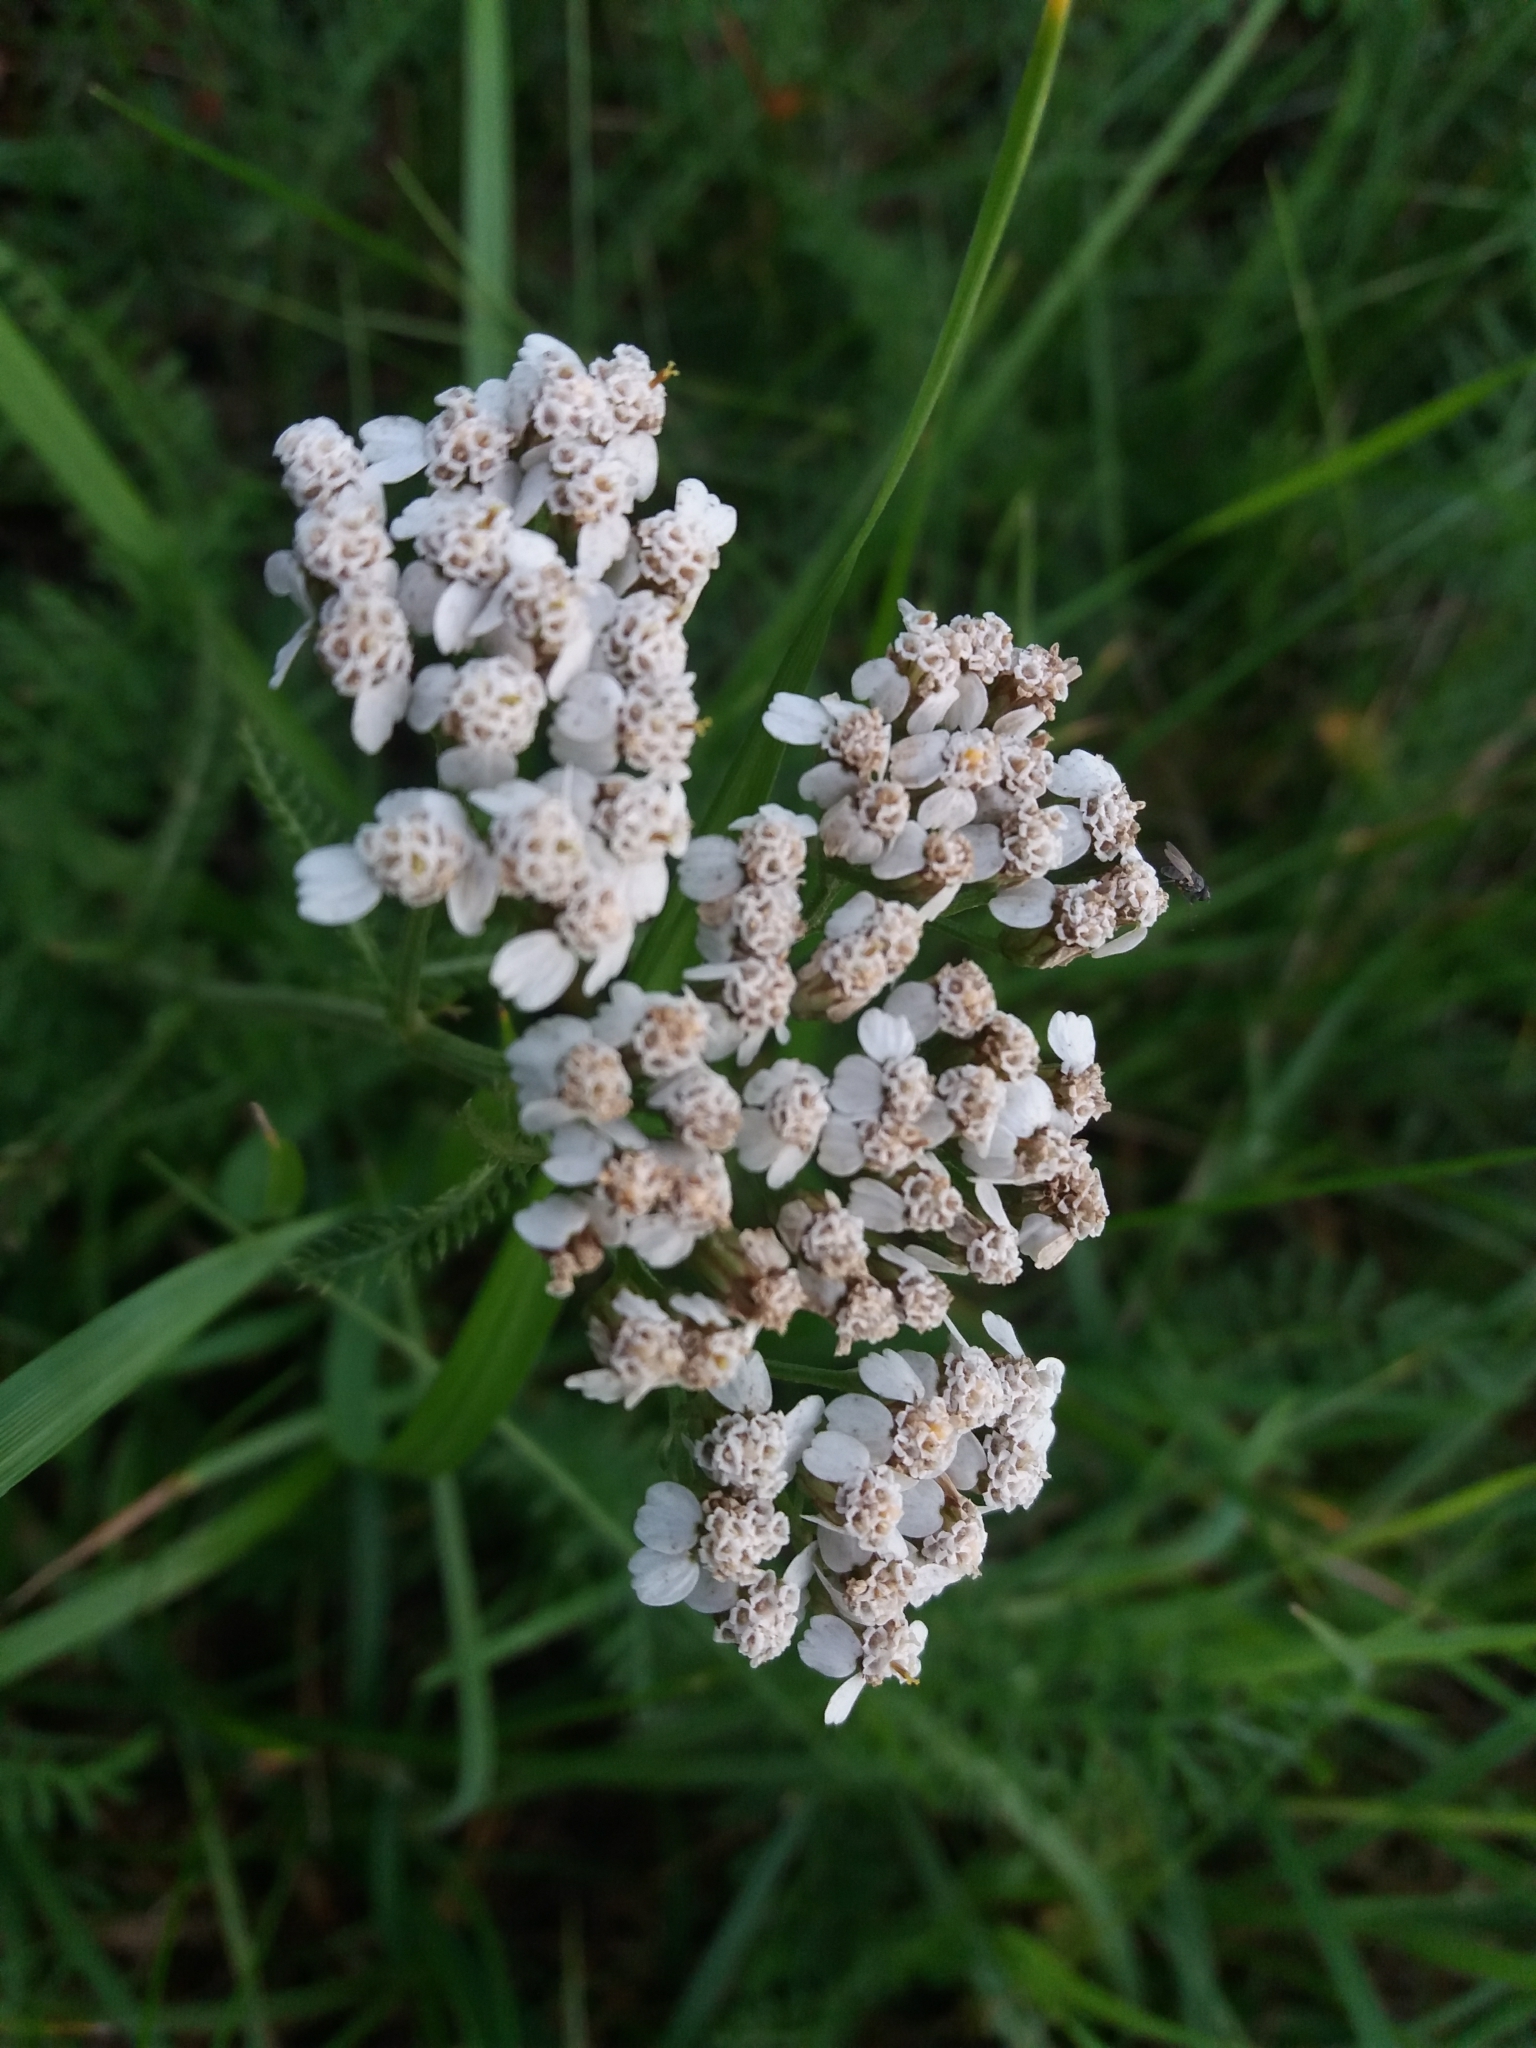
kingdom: Plantae
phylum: Tracheophyta
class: Magnoliopsida
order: Asterales
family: Asteraceae
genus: Achillea
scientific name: Achillea millefolium
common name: Yarrow
